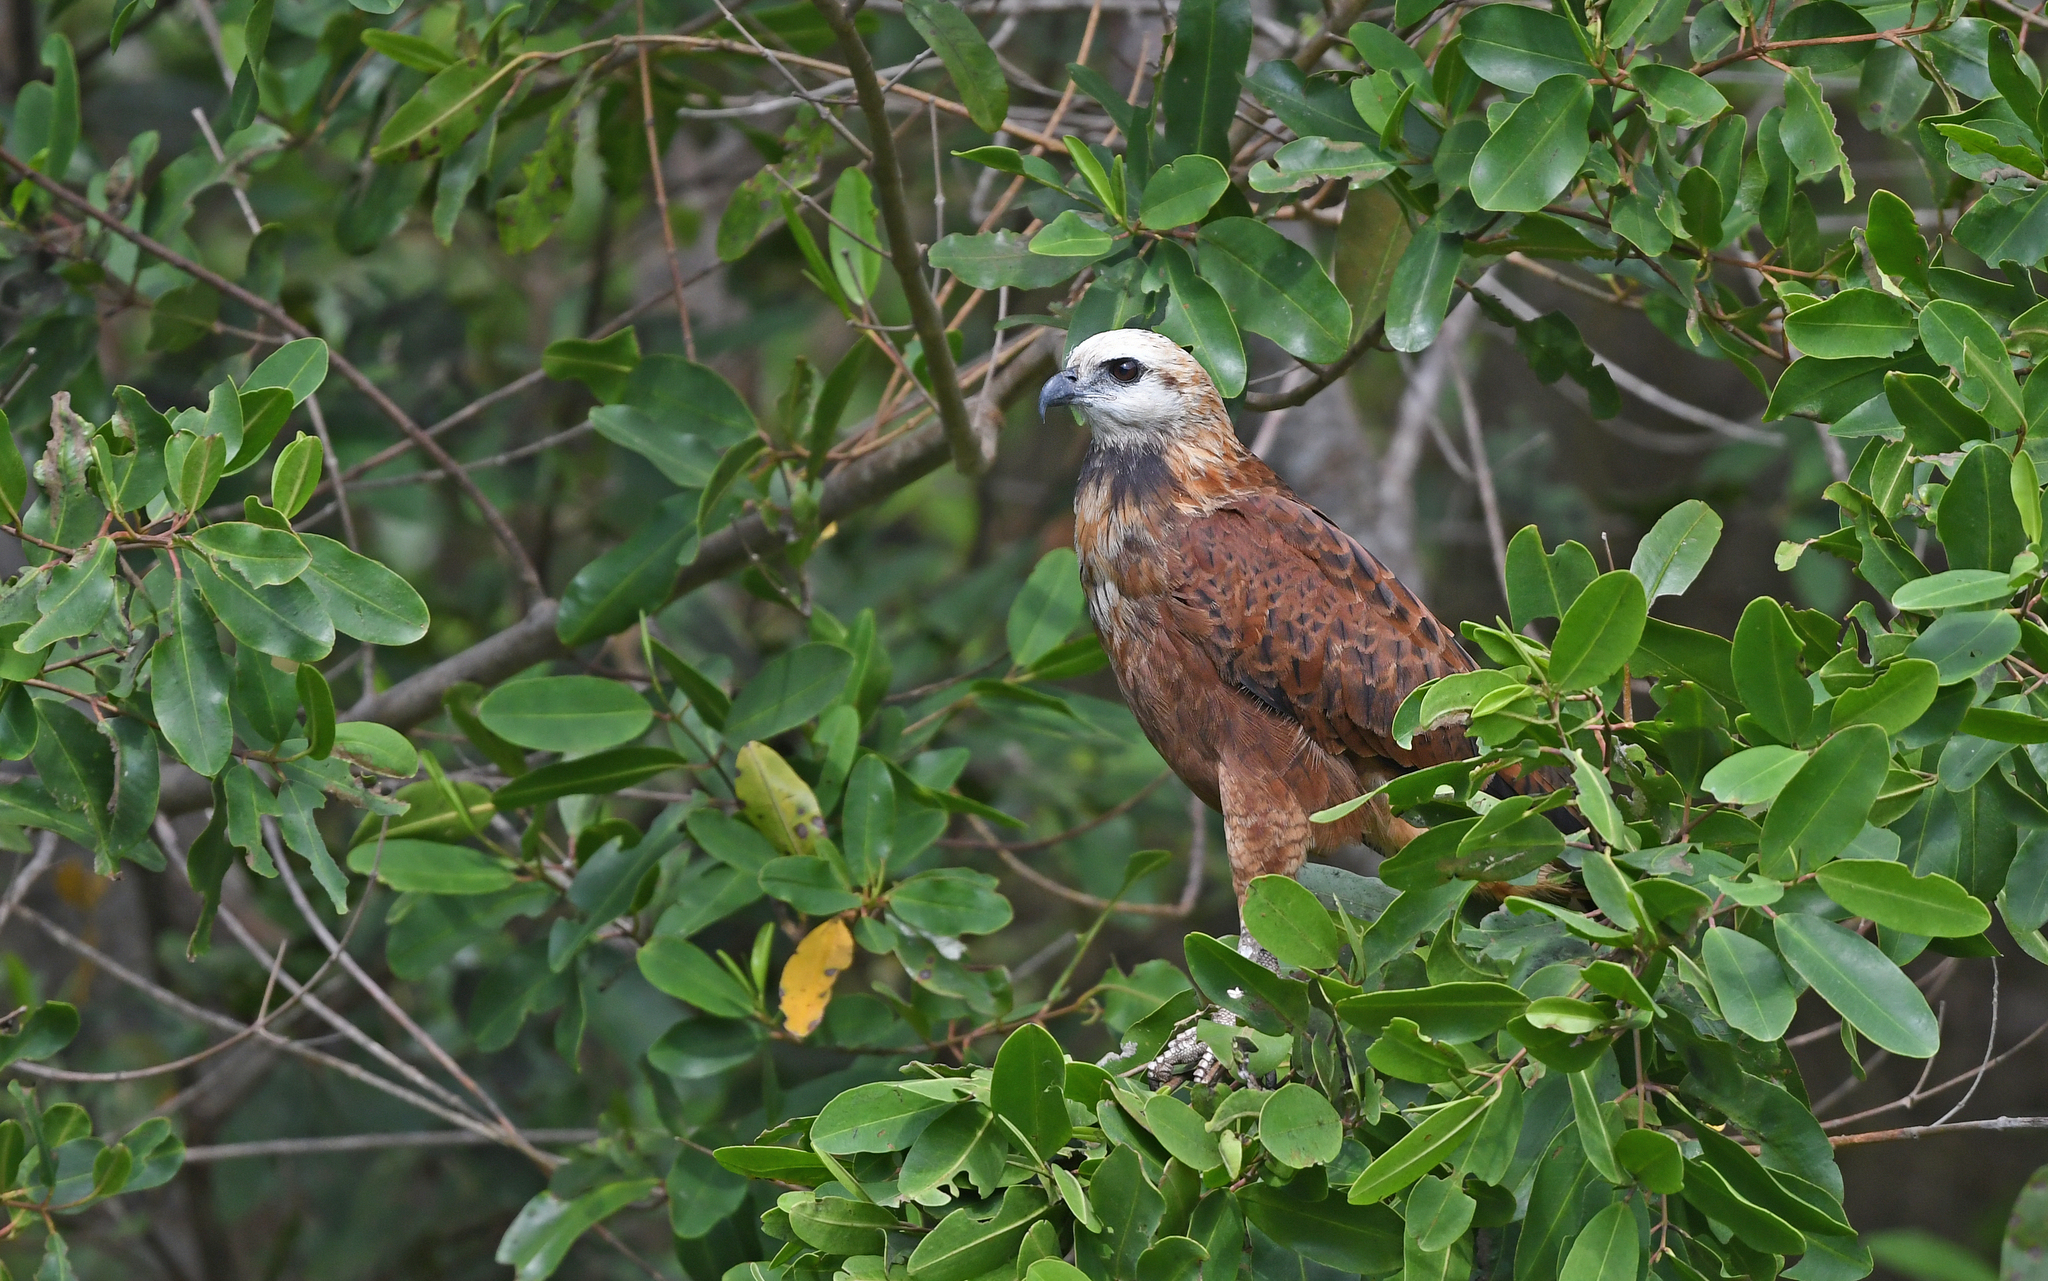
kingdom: Animalia
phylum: Chordata
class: Aves
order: Accipitriformes
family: Accipitridae
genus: Busarellus
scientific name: Busarellus nigricollis
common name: Black-collared hawk
